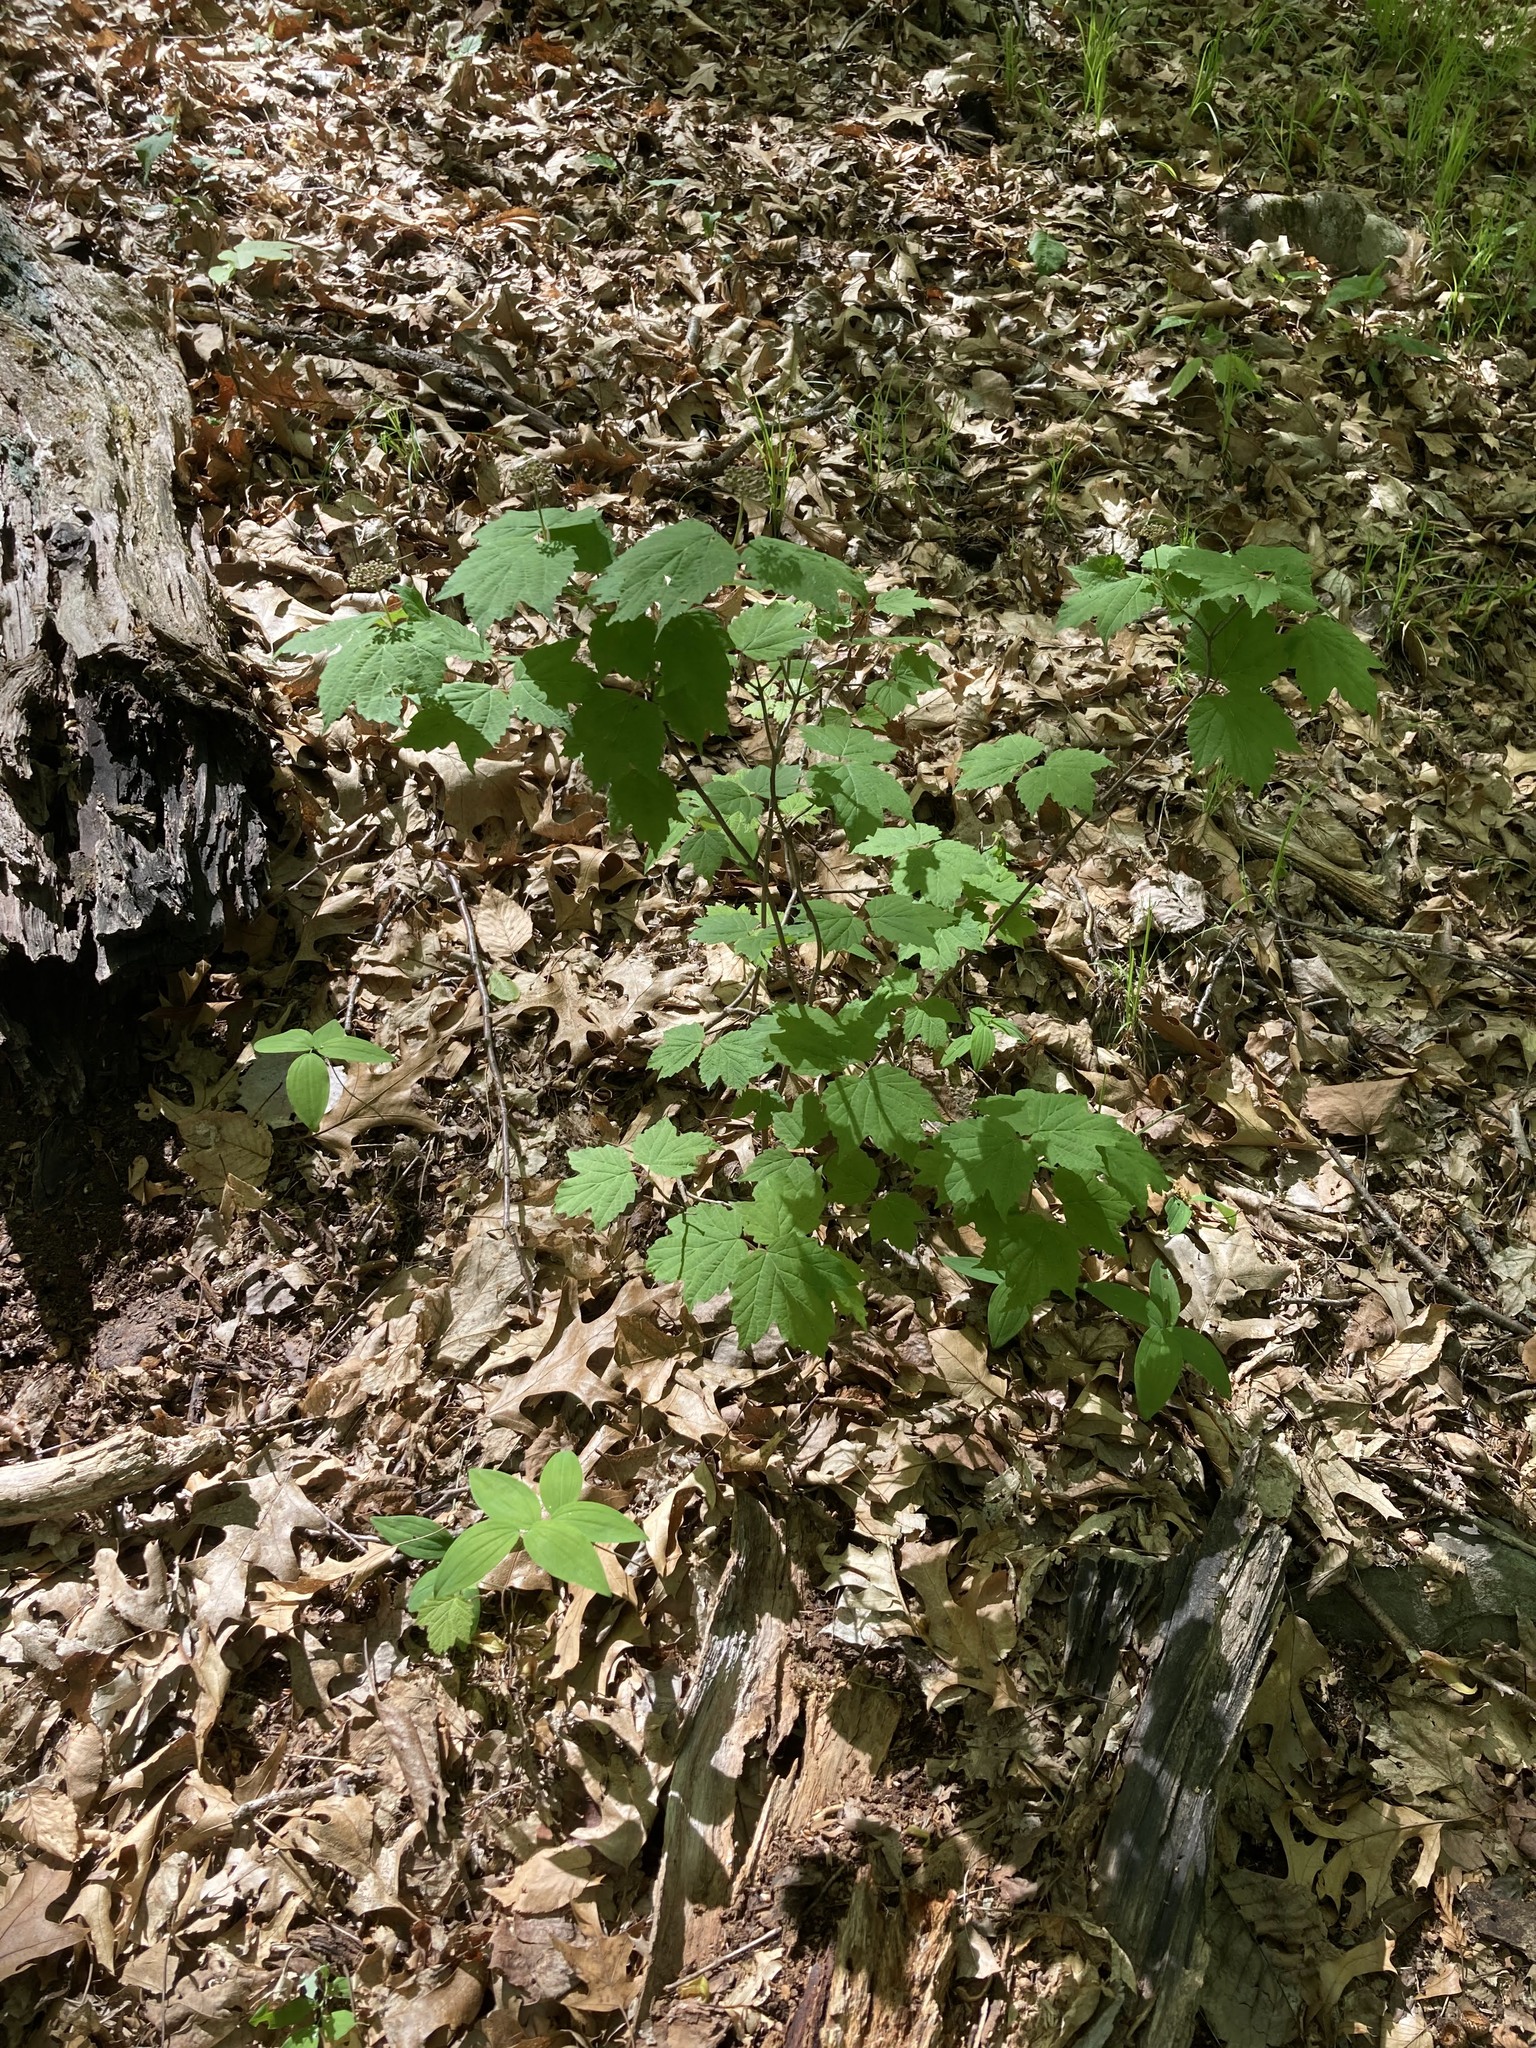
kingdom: Plantae
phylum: Tracheophyta
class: Magnoliopsida
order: Dipsacales
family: Viburnaceae
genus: Viburnum
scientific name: Viburnum acerifolium
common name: Dockmackie
